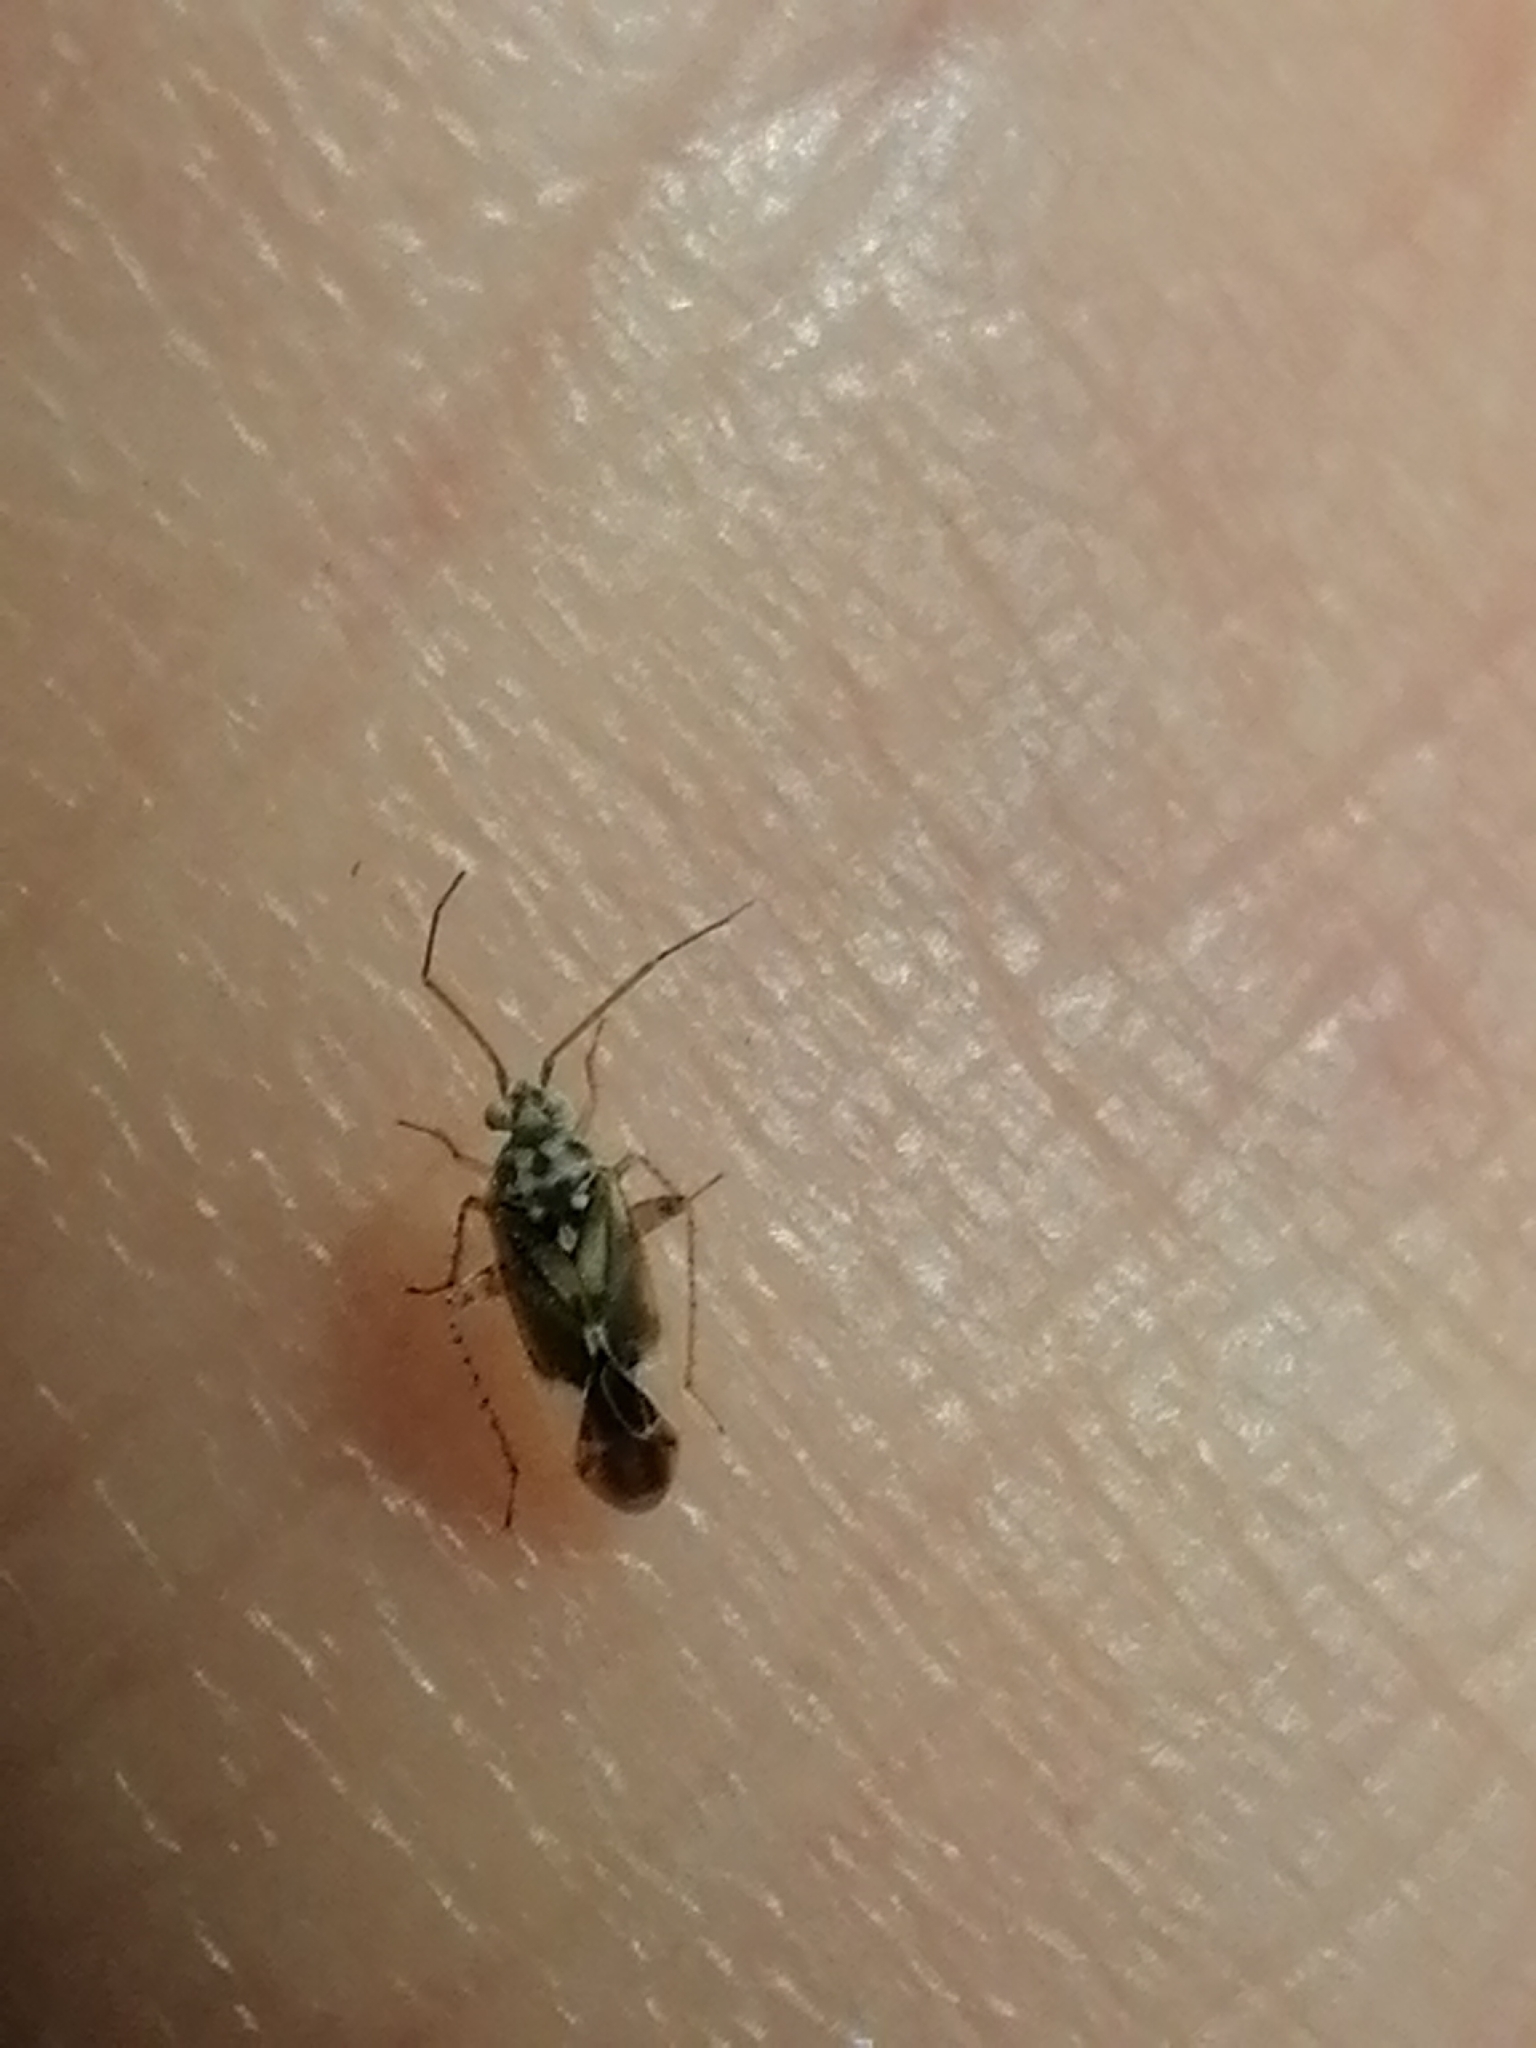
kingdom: Animalia
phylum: Arthropoda
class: Insecta
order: Hemiptera
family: Miridae
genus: Monospatha
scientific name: Monospatha distincta
